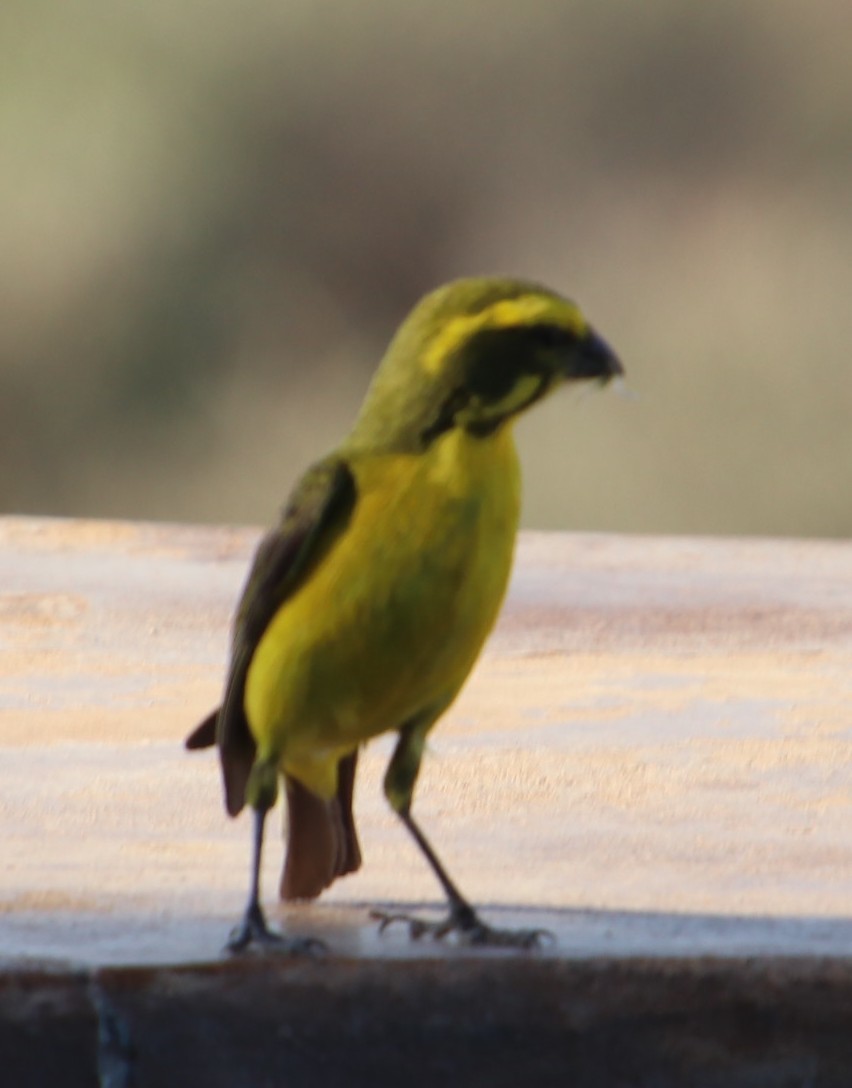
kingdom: Animalia
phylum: Chordata
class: Aves
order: Passeriformes
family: Fringillidae
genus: Crithagra
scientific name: Crithagra flaviventris
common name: Yellow canary
